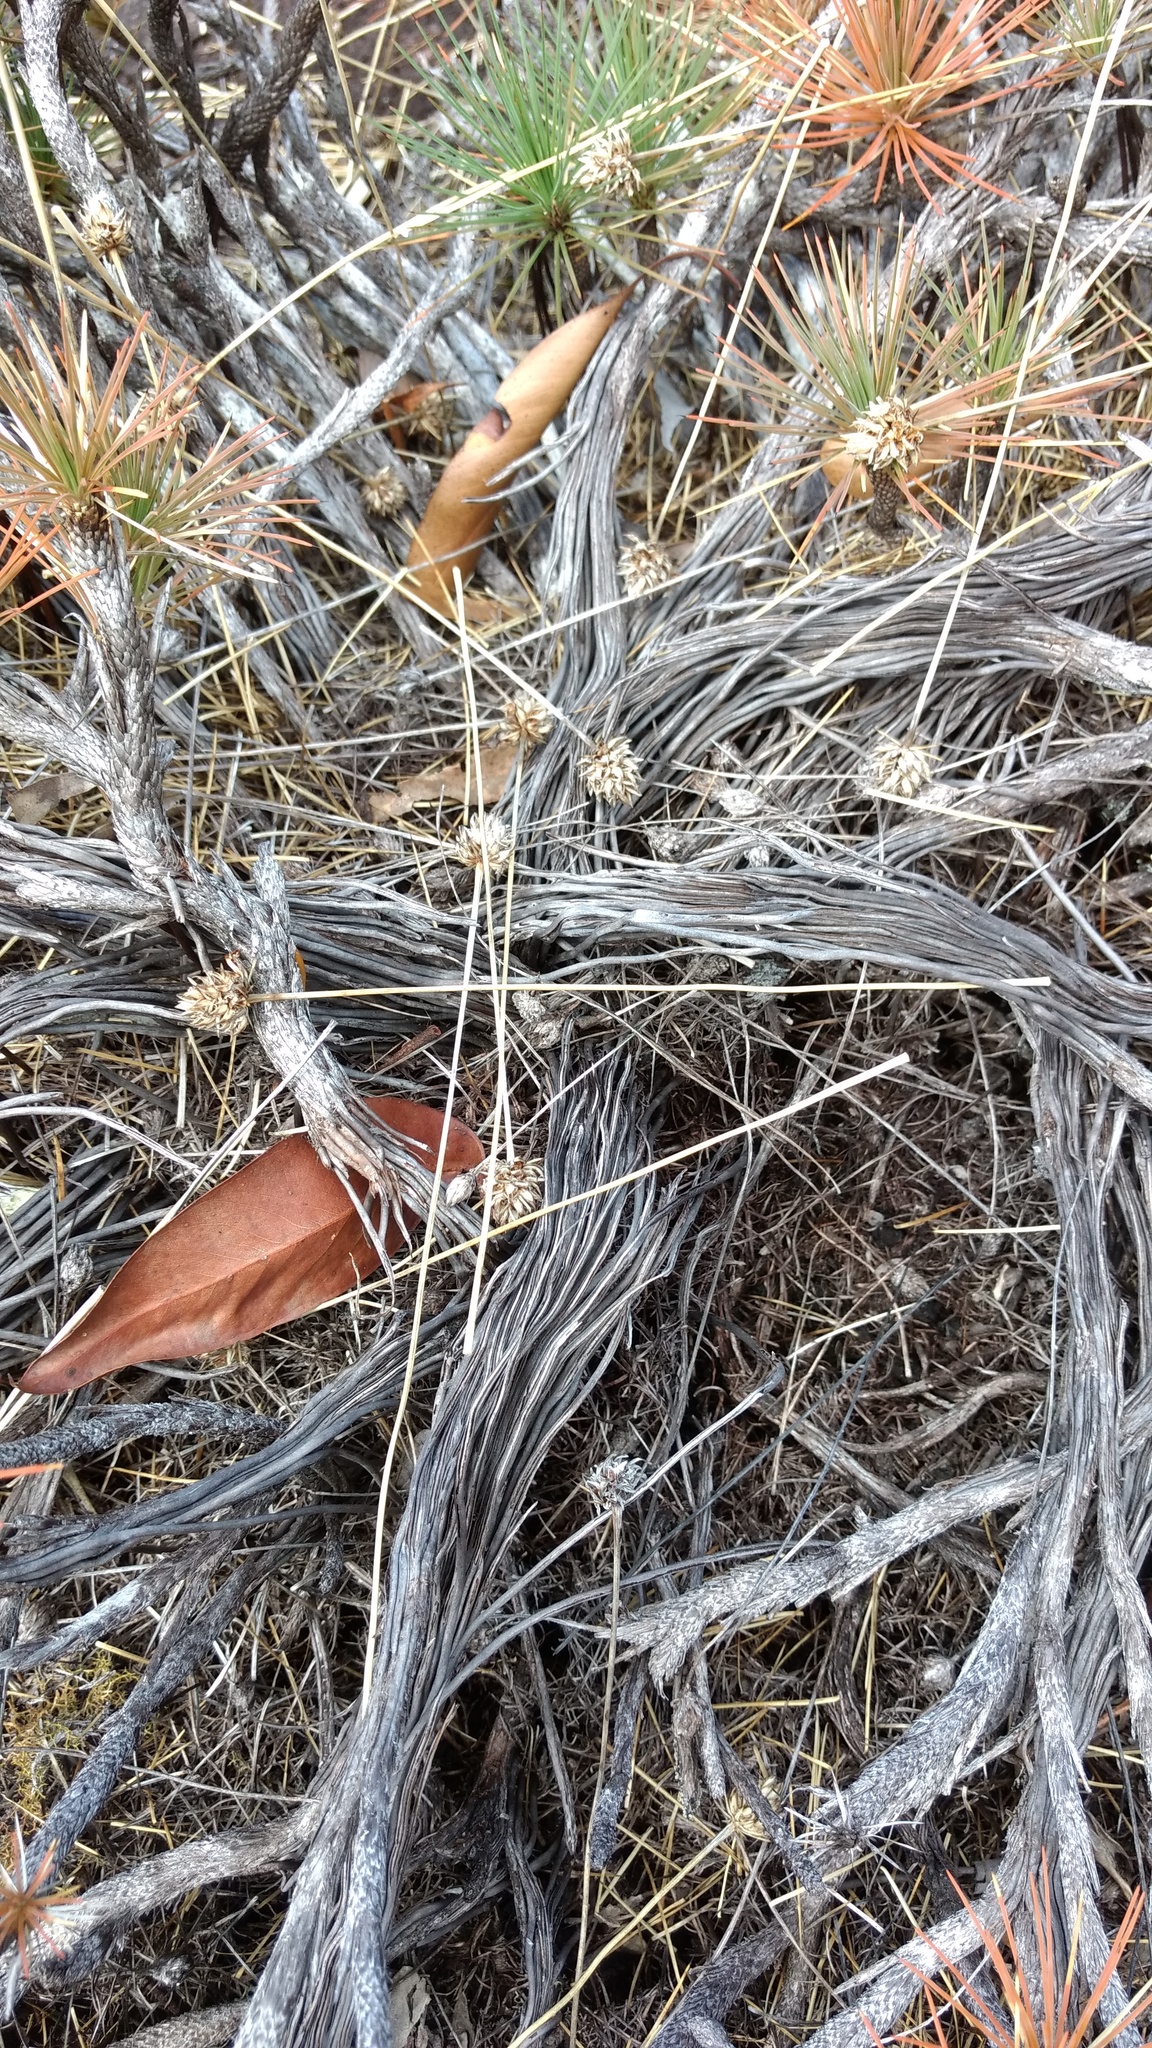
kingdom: Plantae
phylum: Tracheophyta
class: Liliopsida
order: Asparagales
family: Boryaceae
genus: Borya
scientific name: Borya septentrionalis
